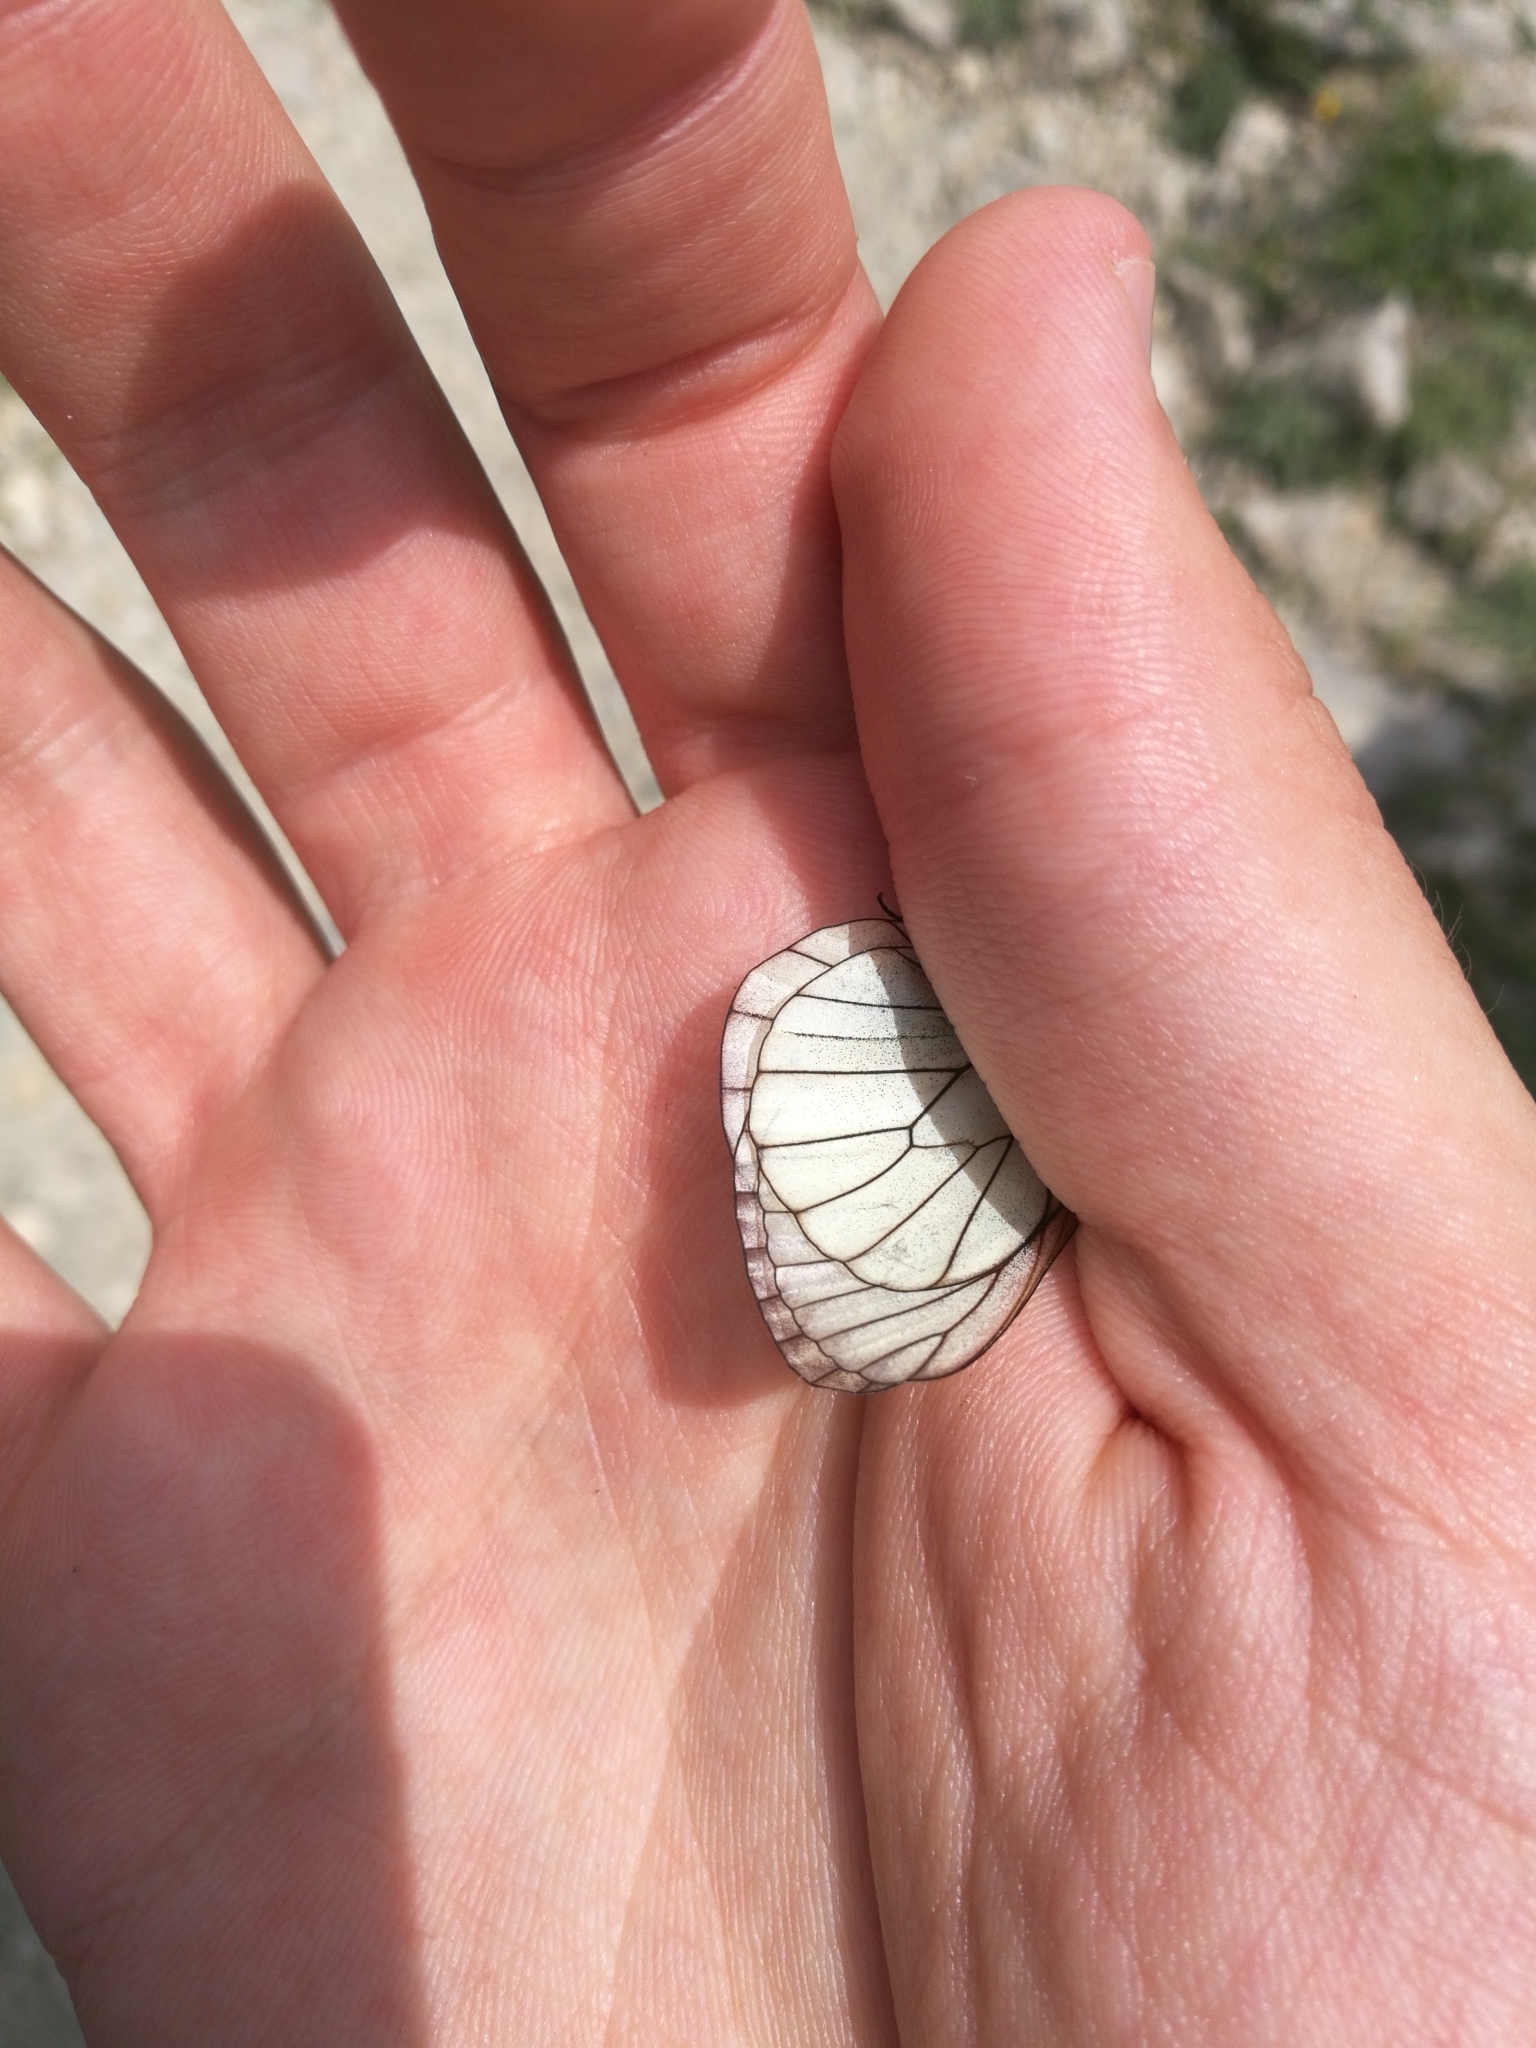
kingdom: Animalia
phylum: Arthropoda
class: Insecta
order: Lepidoptera
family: Pieridae
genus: Aporia
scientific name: Aporia crataegi
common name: Black-veined white
